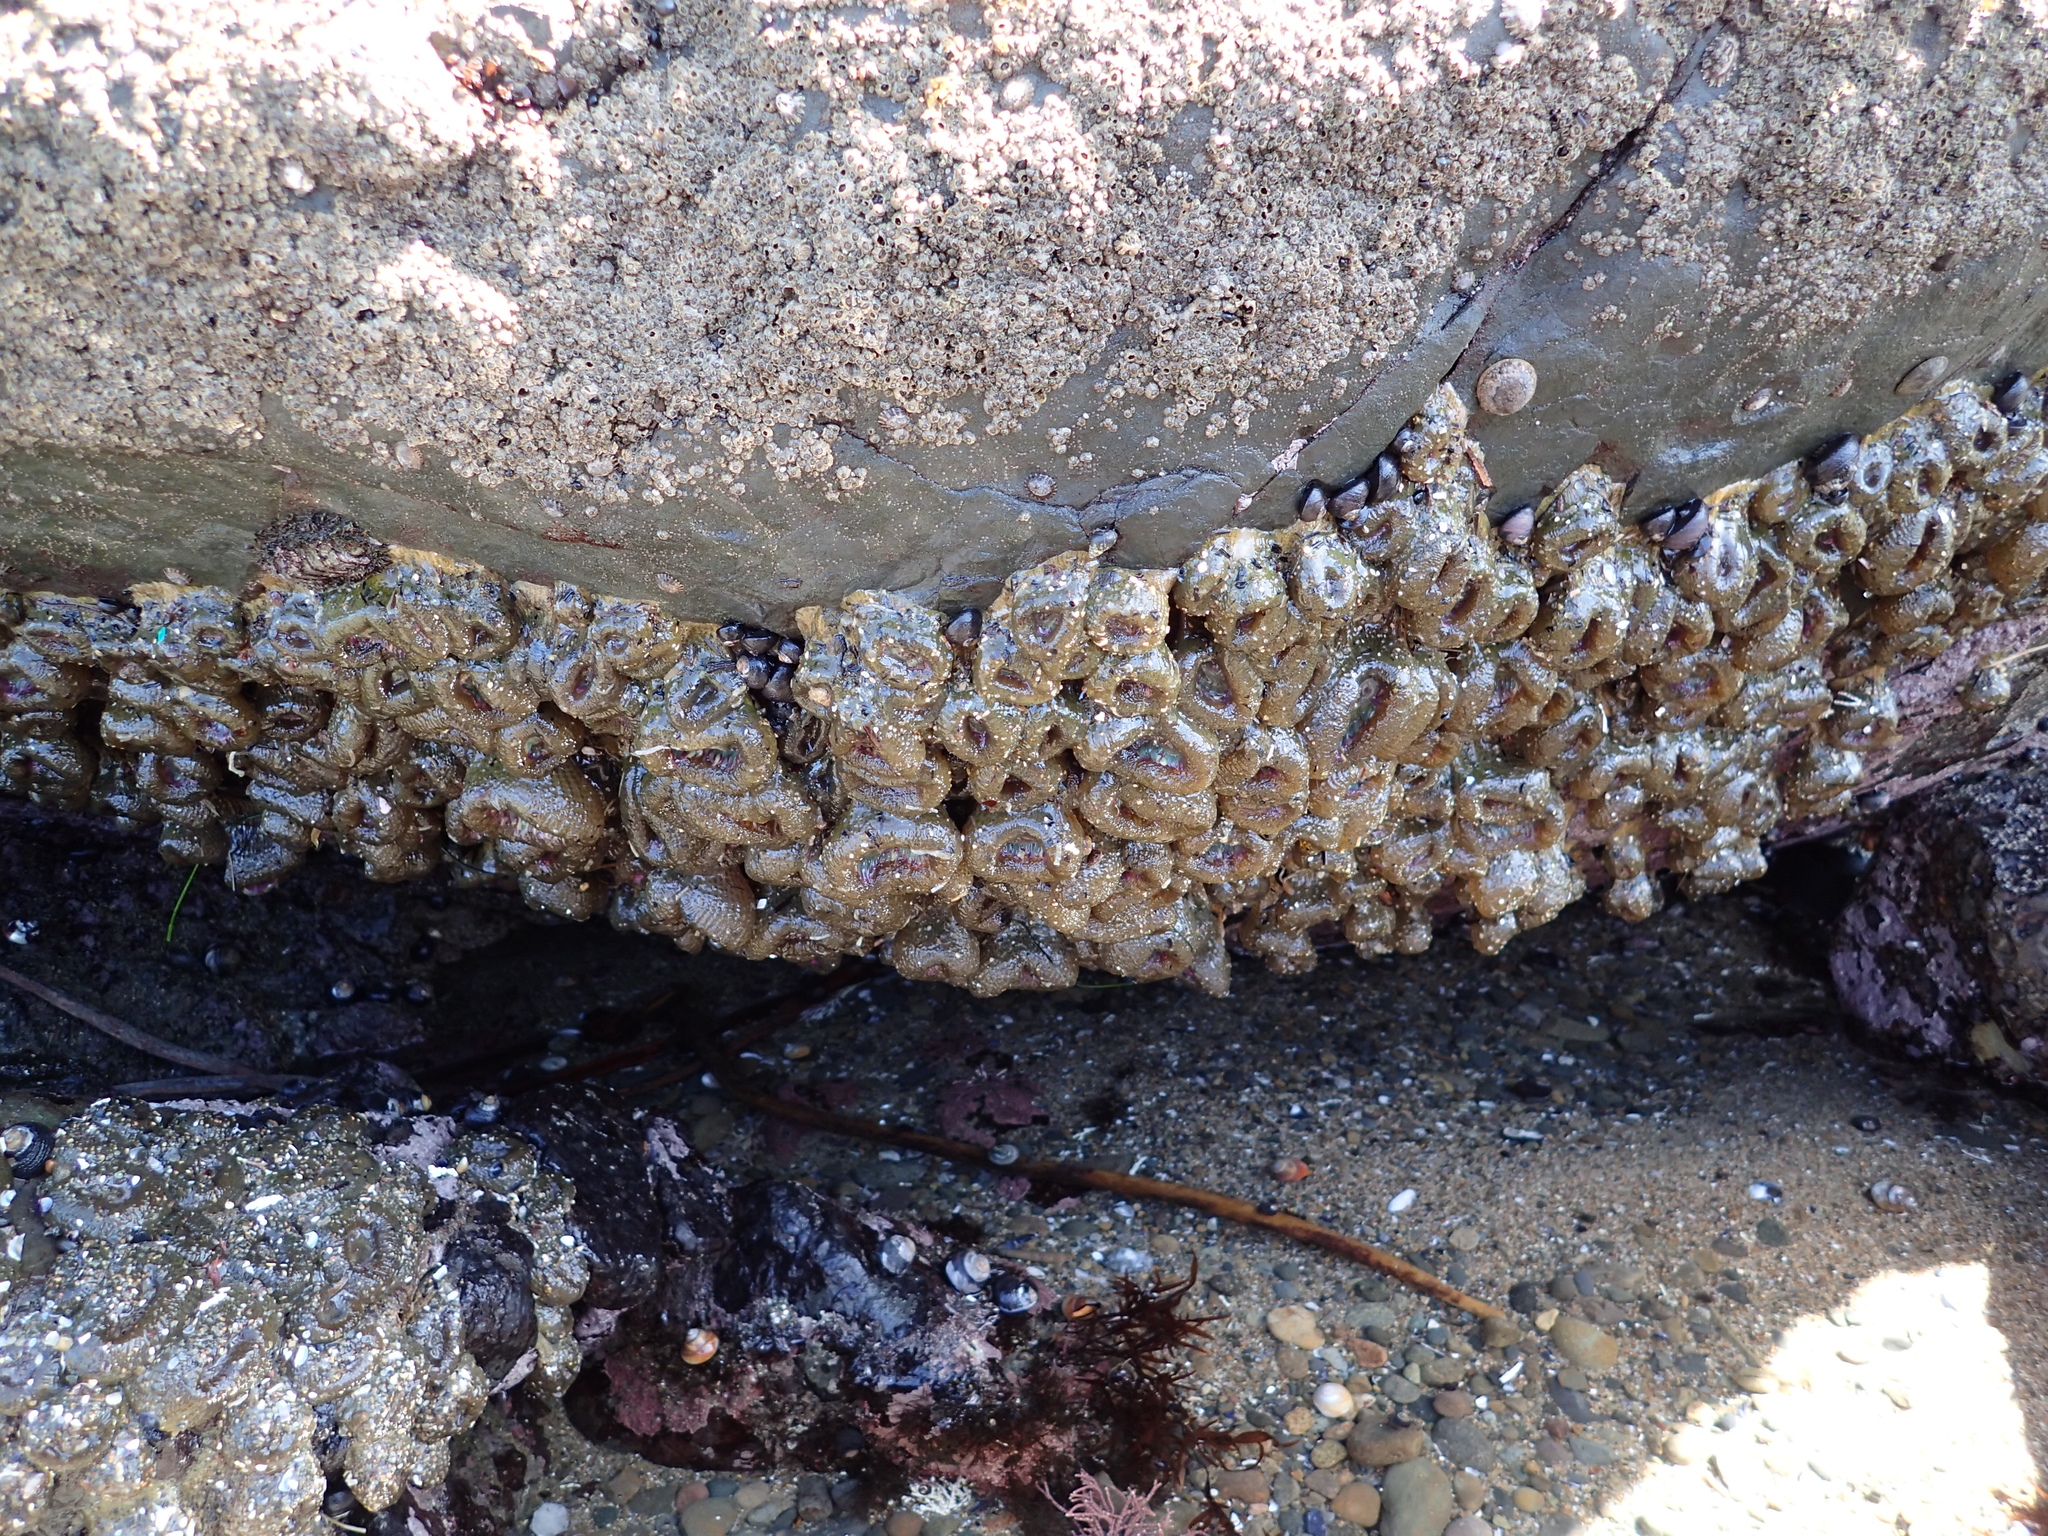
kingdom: Animalia
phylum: Cnidaria
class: Anthozoa
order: Actiniaria
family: Actiniidae
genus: Anthopleura
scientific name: Anthopleura elegantissima
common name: Clonal anemone
